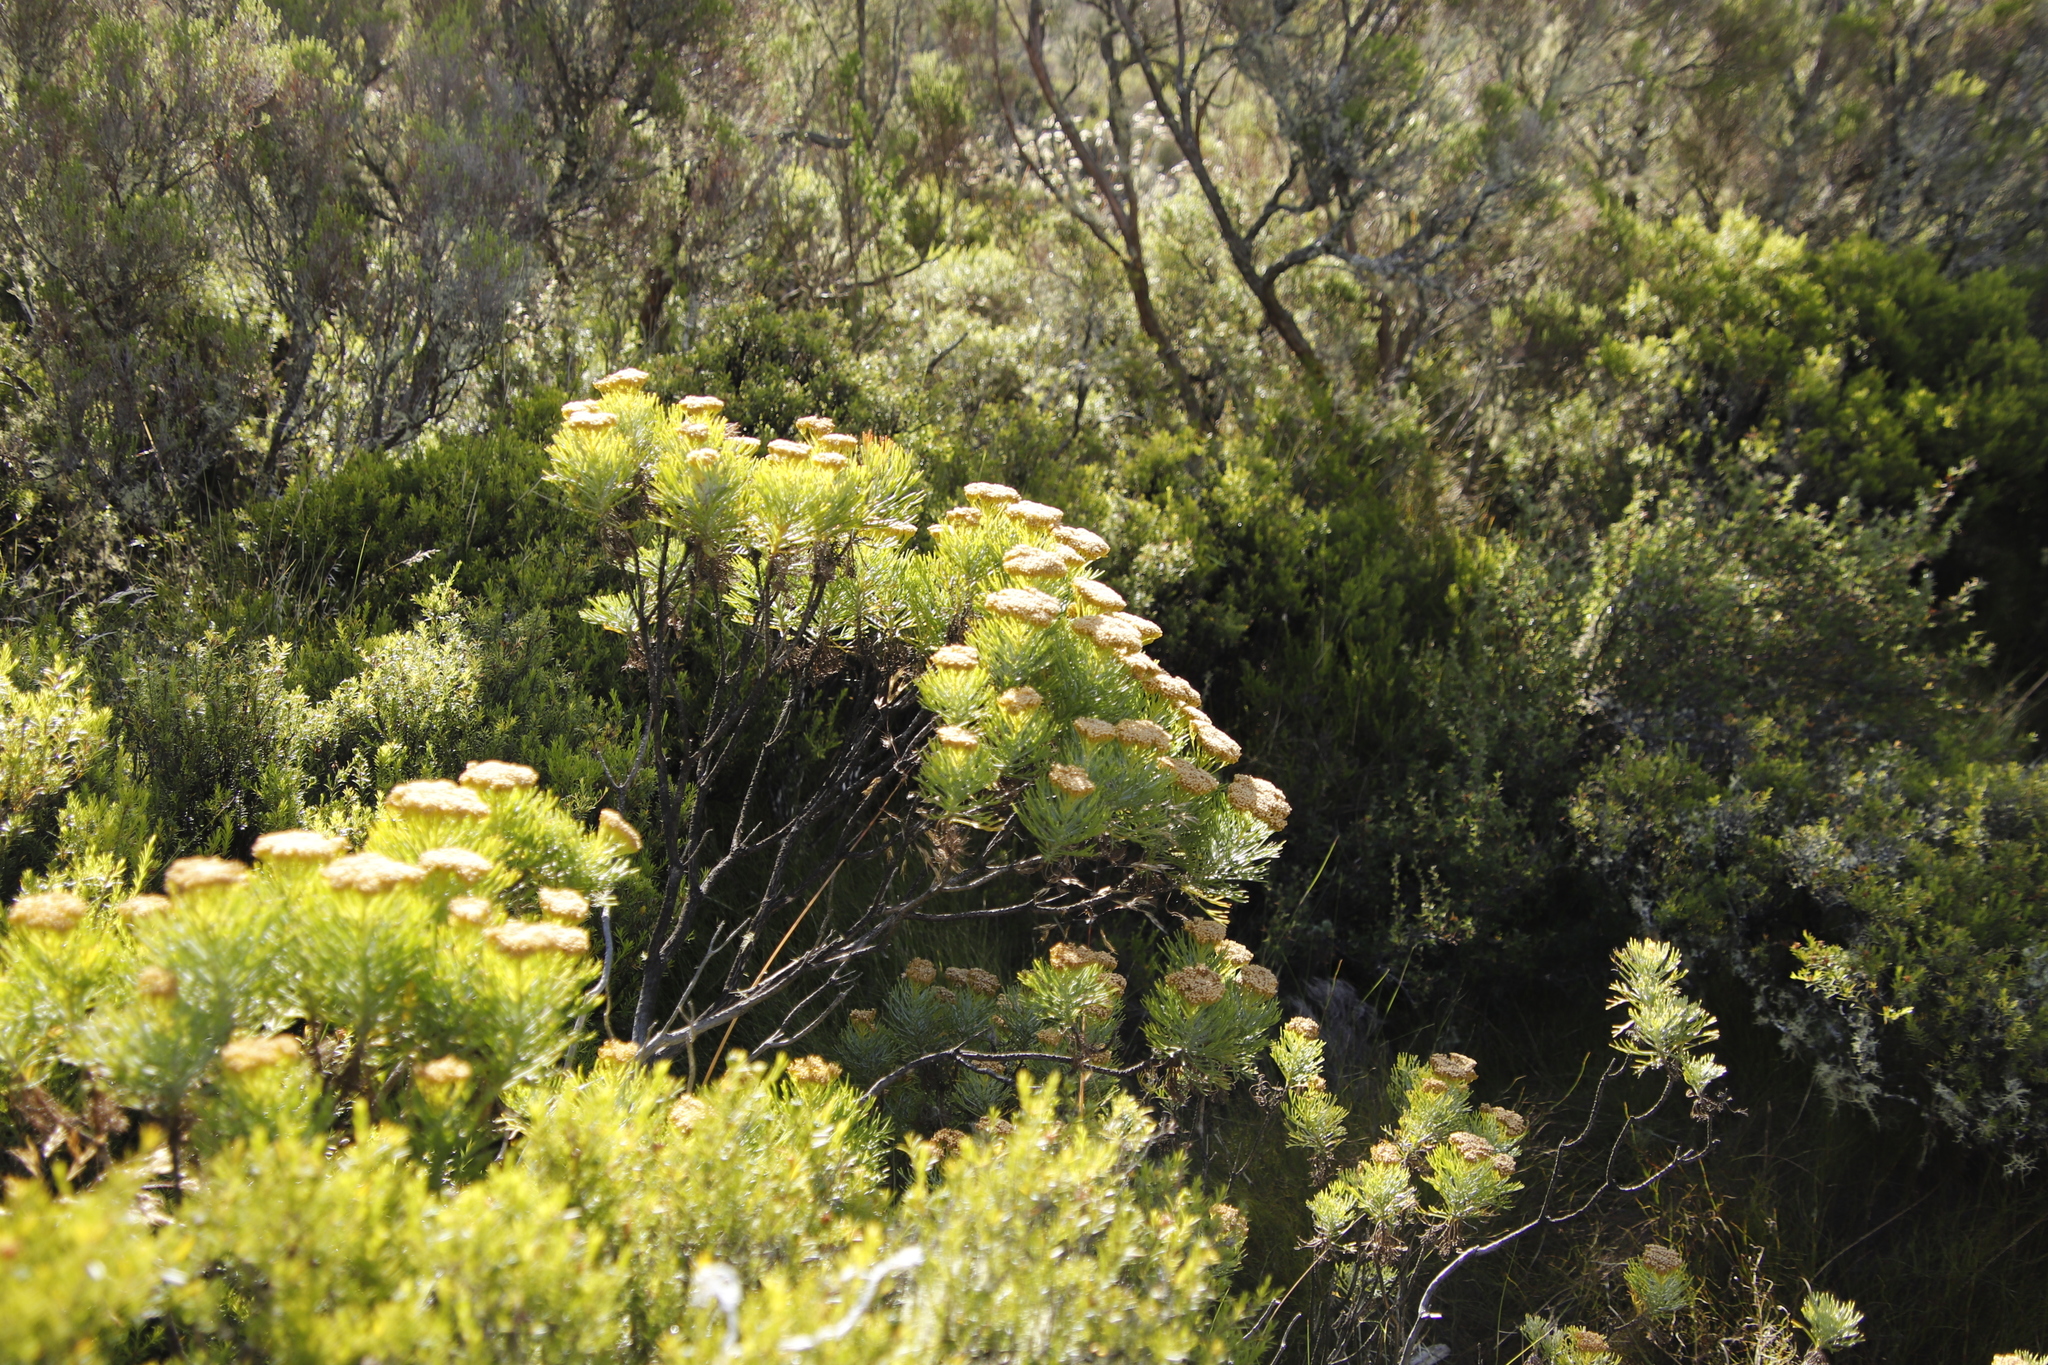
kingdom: Plantae
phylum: Tracheophyta
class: Magnoliopsida
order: Asterales
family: Asteraceae
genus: Hymenolepis
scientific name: Hymenolepis crithmifolia
